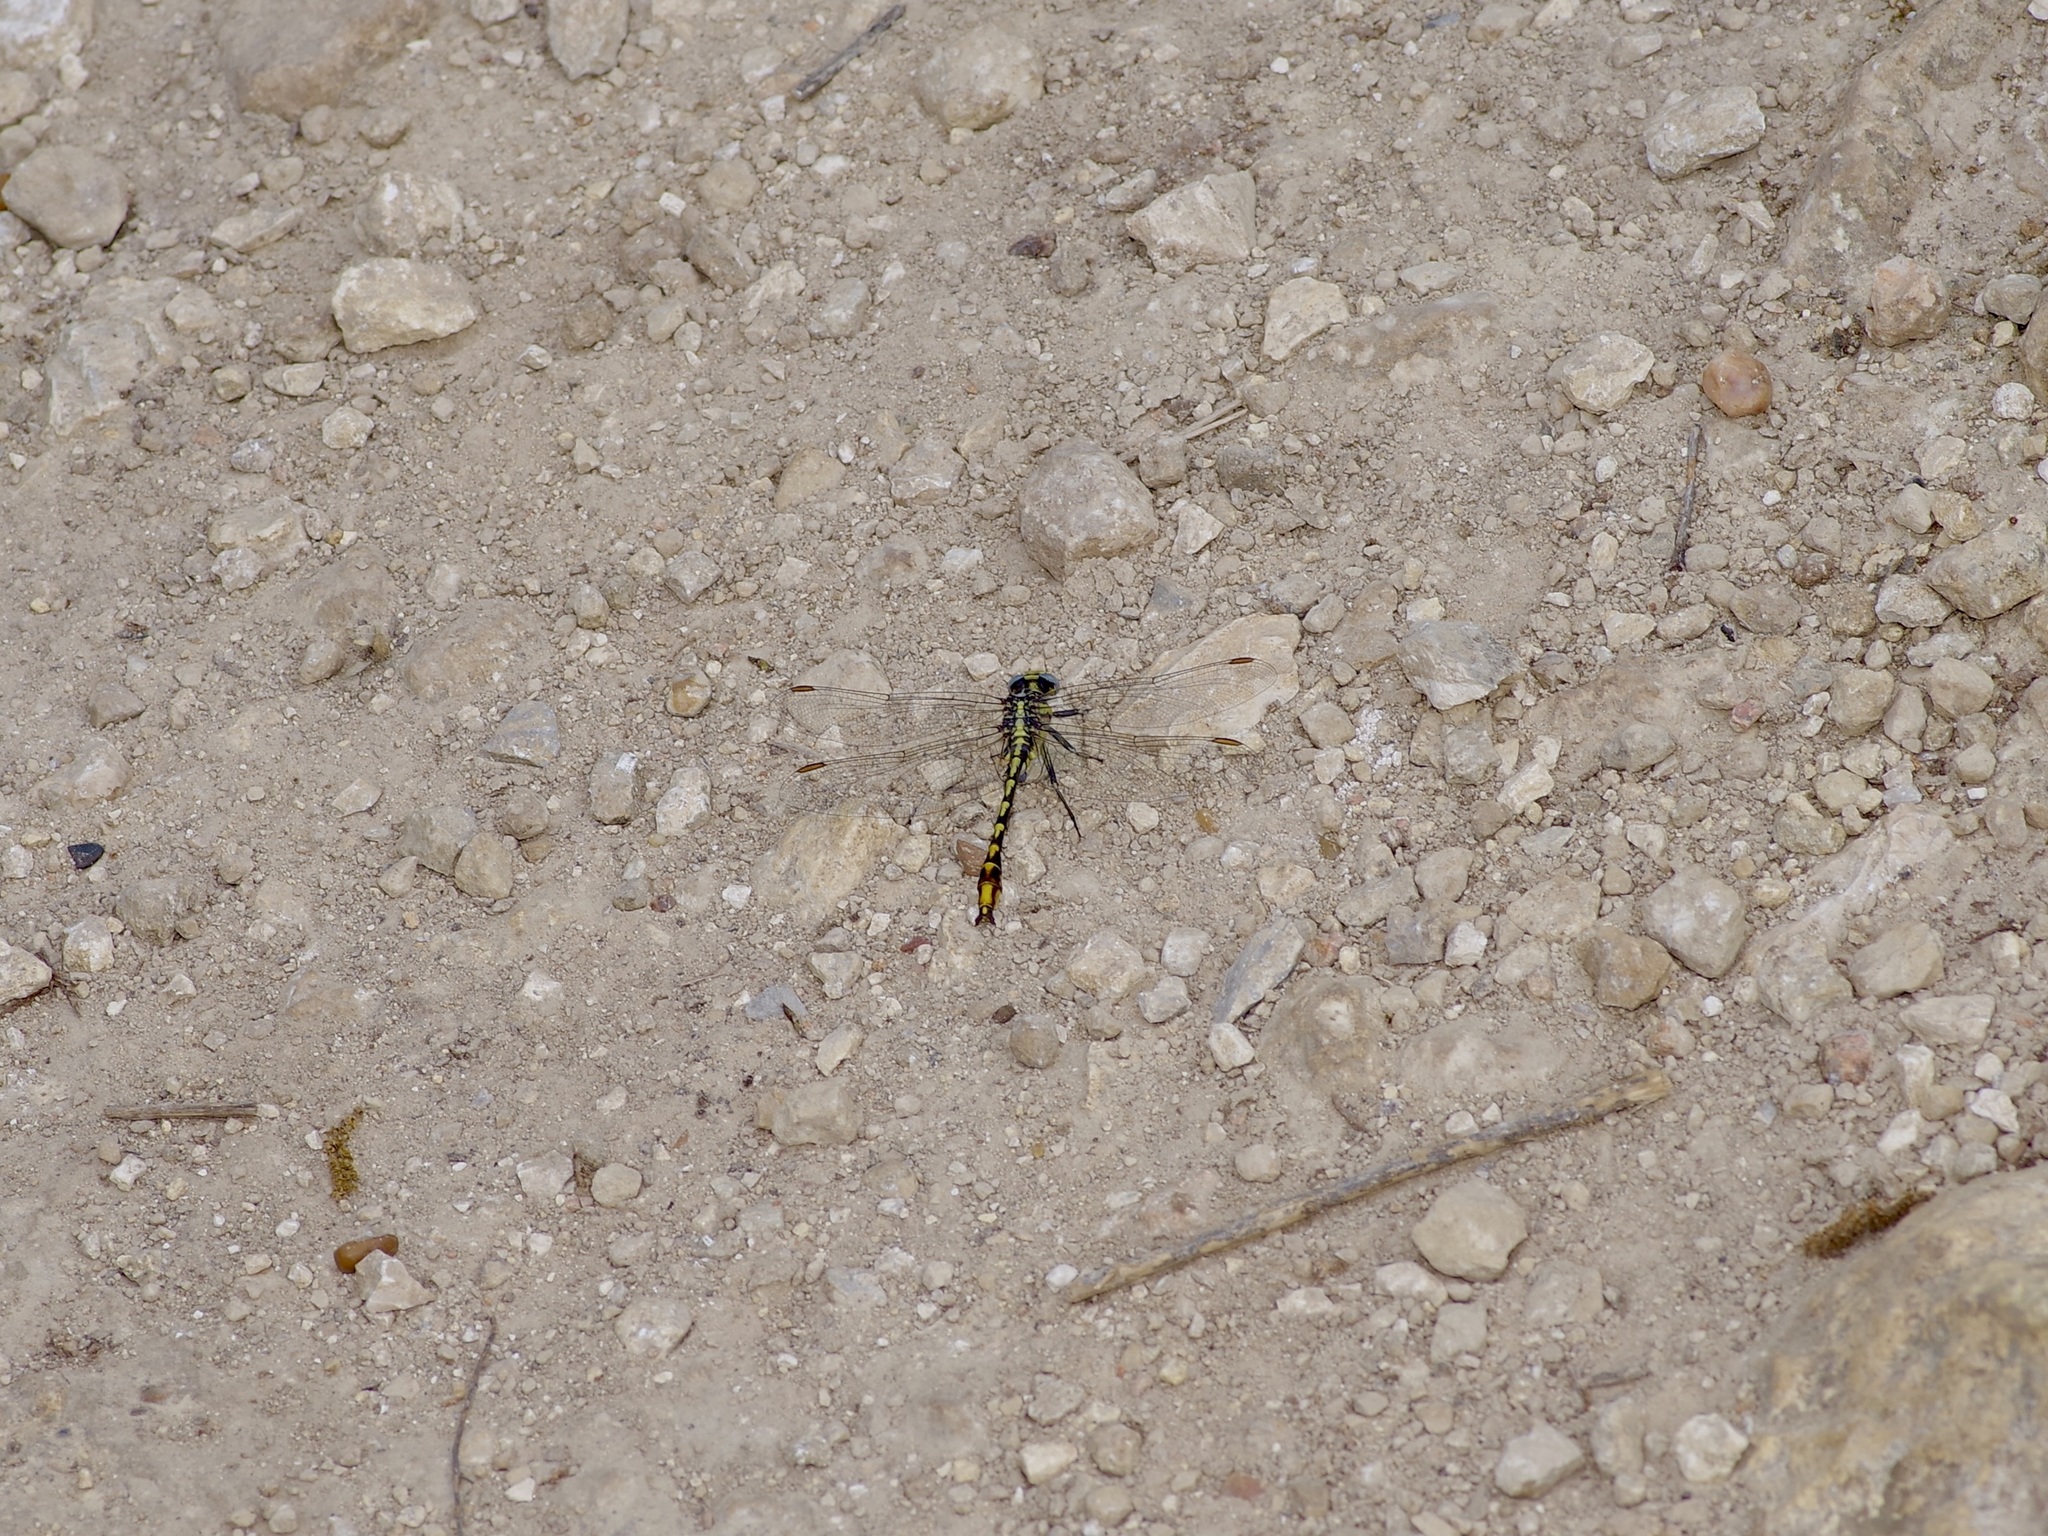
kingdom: Animalia
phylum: Arthropoda
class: Insecta
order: Odonata
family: Gomphidae
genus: Phanogomphus
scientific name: Phanogomphus militaris
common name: Sulphur-tipped clubtail
